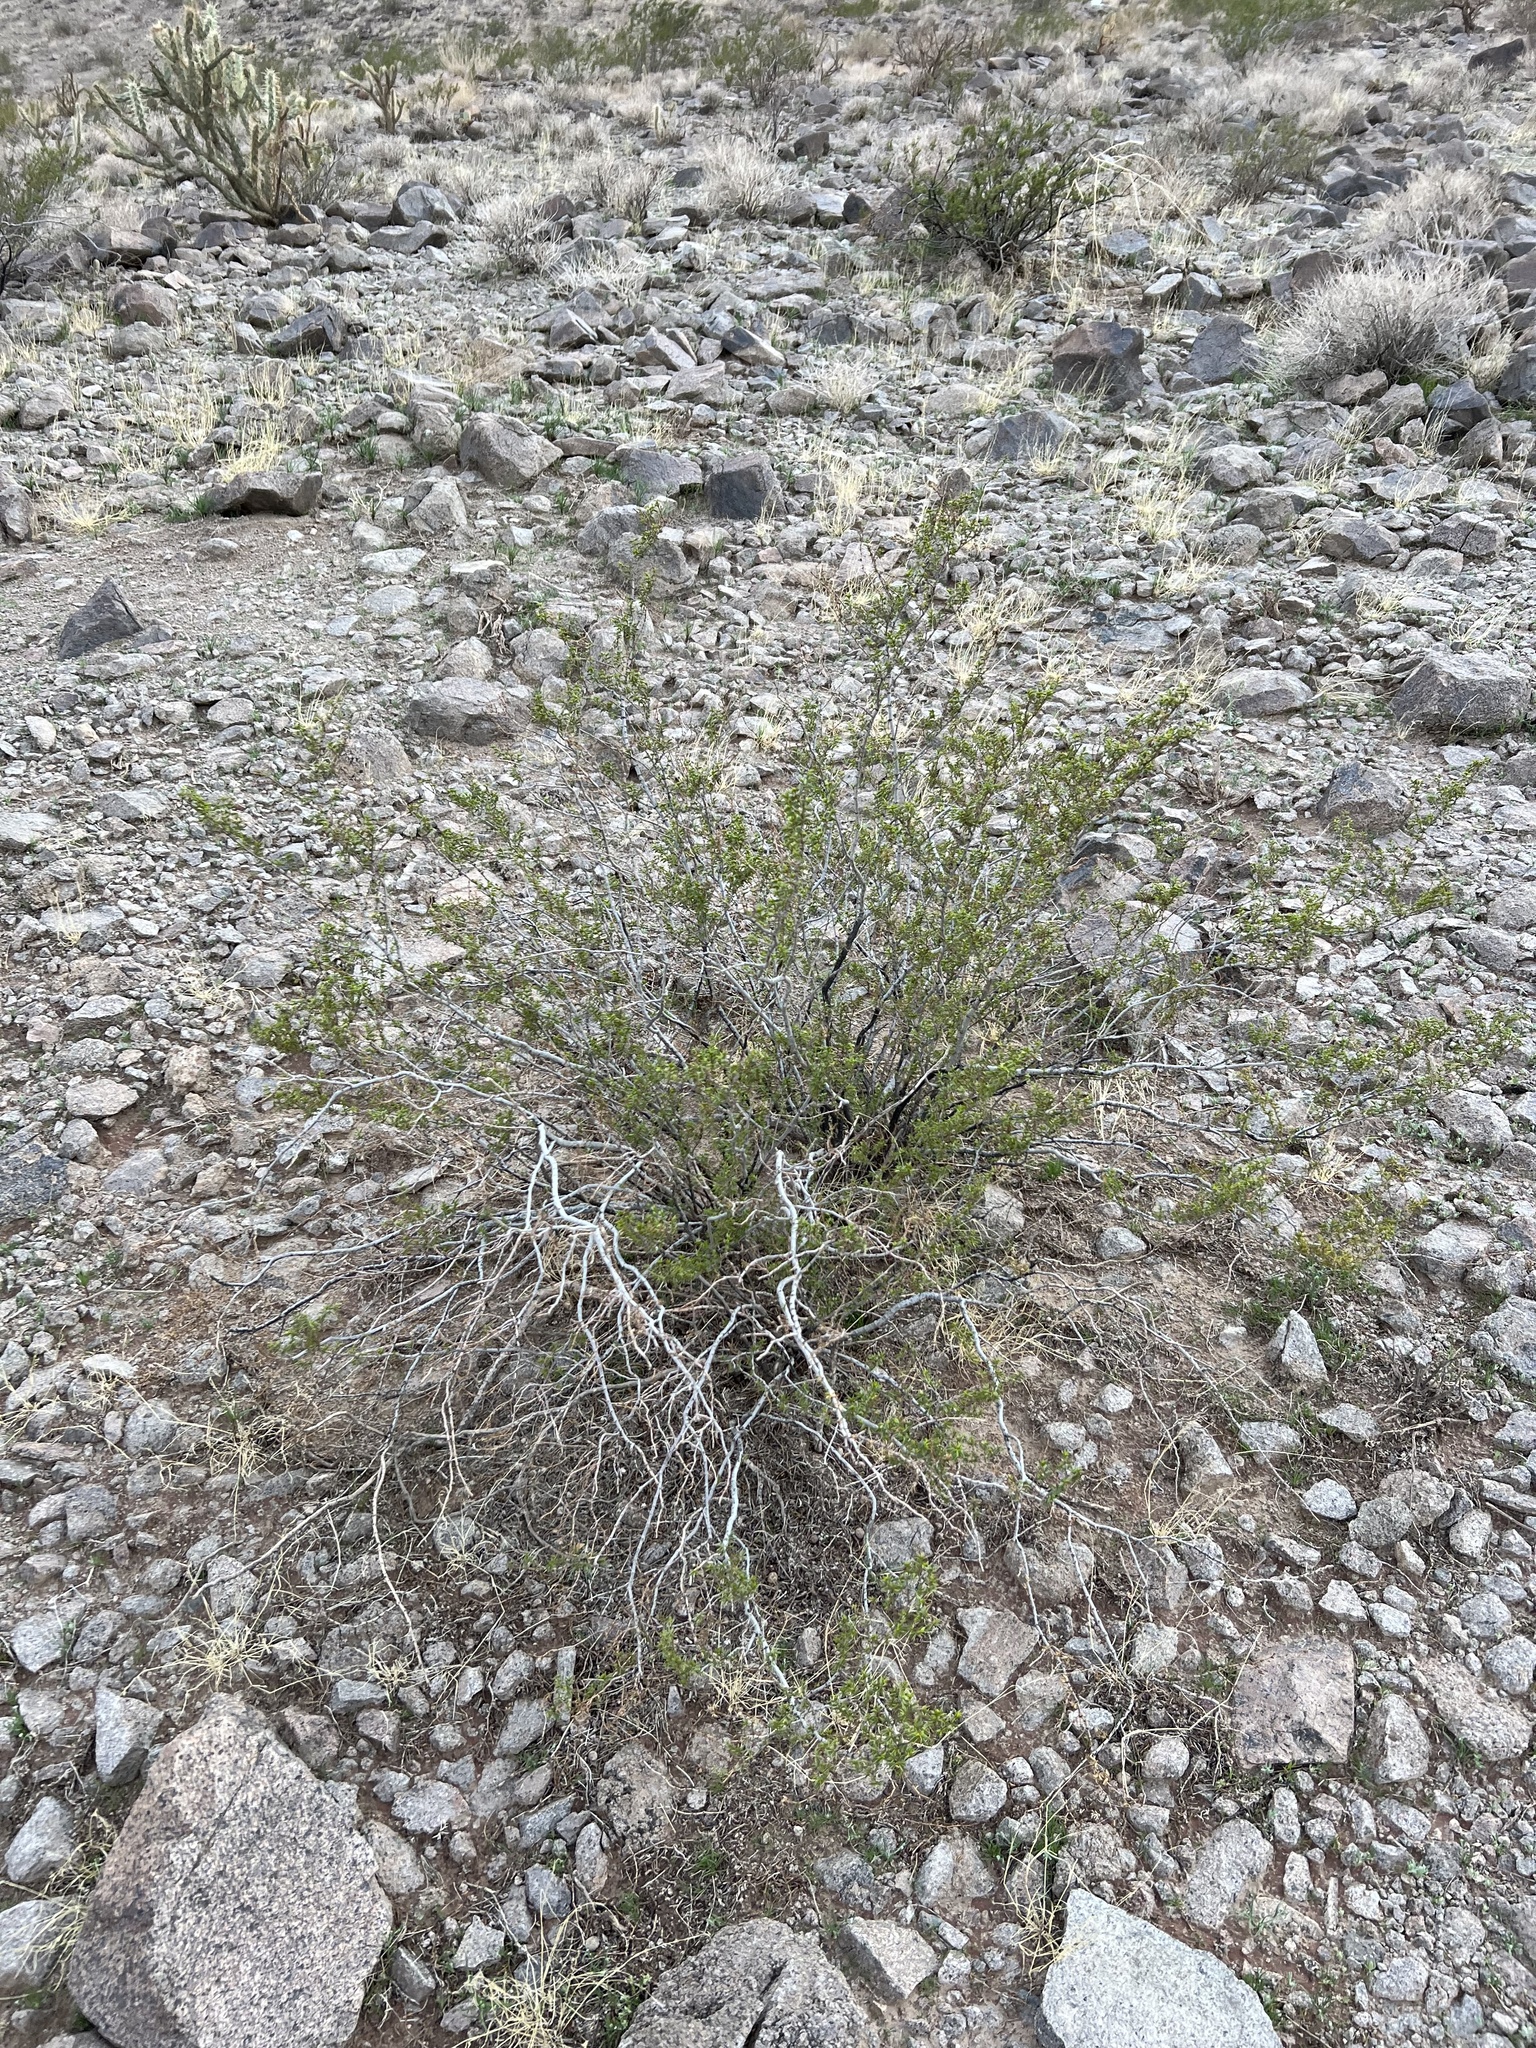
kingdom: Plantae
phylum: Tracheophyta
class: Magnoliopsida
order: Zygophyllales
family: Zygophyllaceae
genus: Larrea
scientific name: Larrea tridentata
